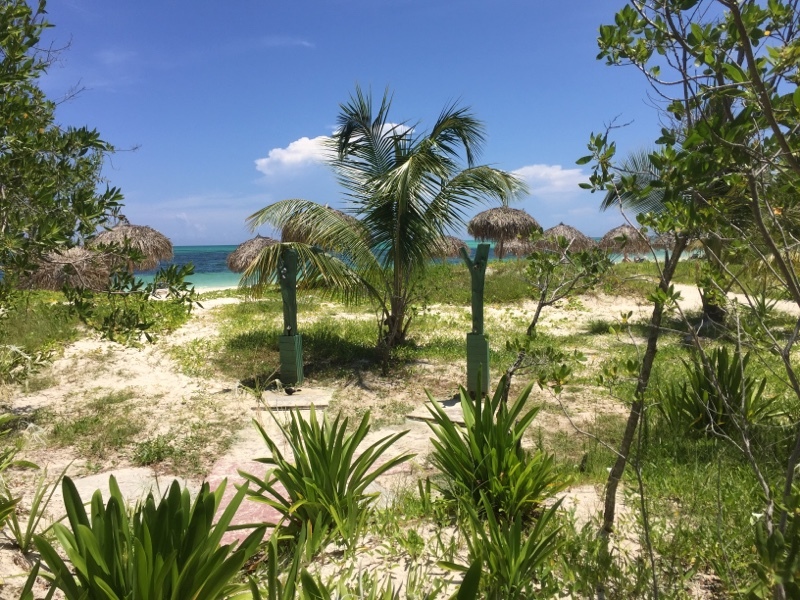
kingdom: Plantae
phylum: Tracheophyta
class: Liliopsida
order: Arecales
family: Arecaceae
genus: Cocos
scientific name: Cocos nucifera
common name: Coconut palm
